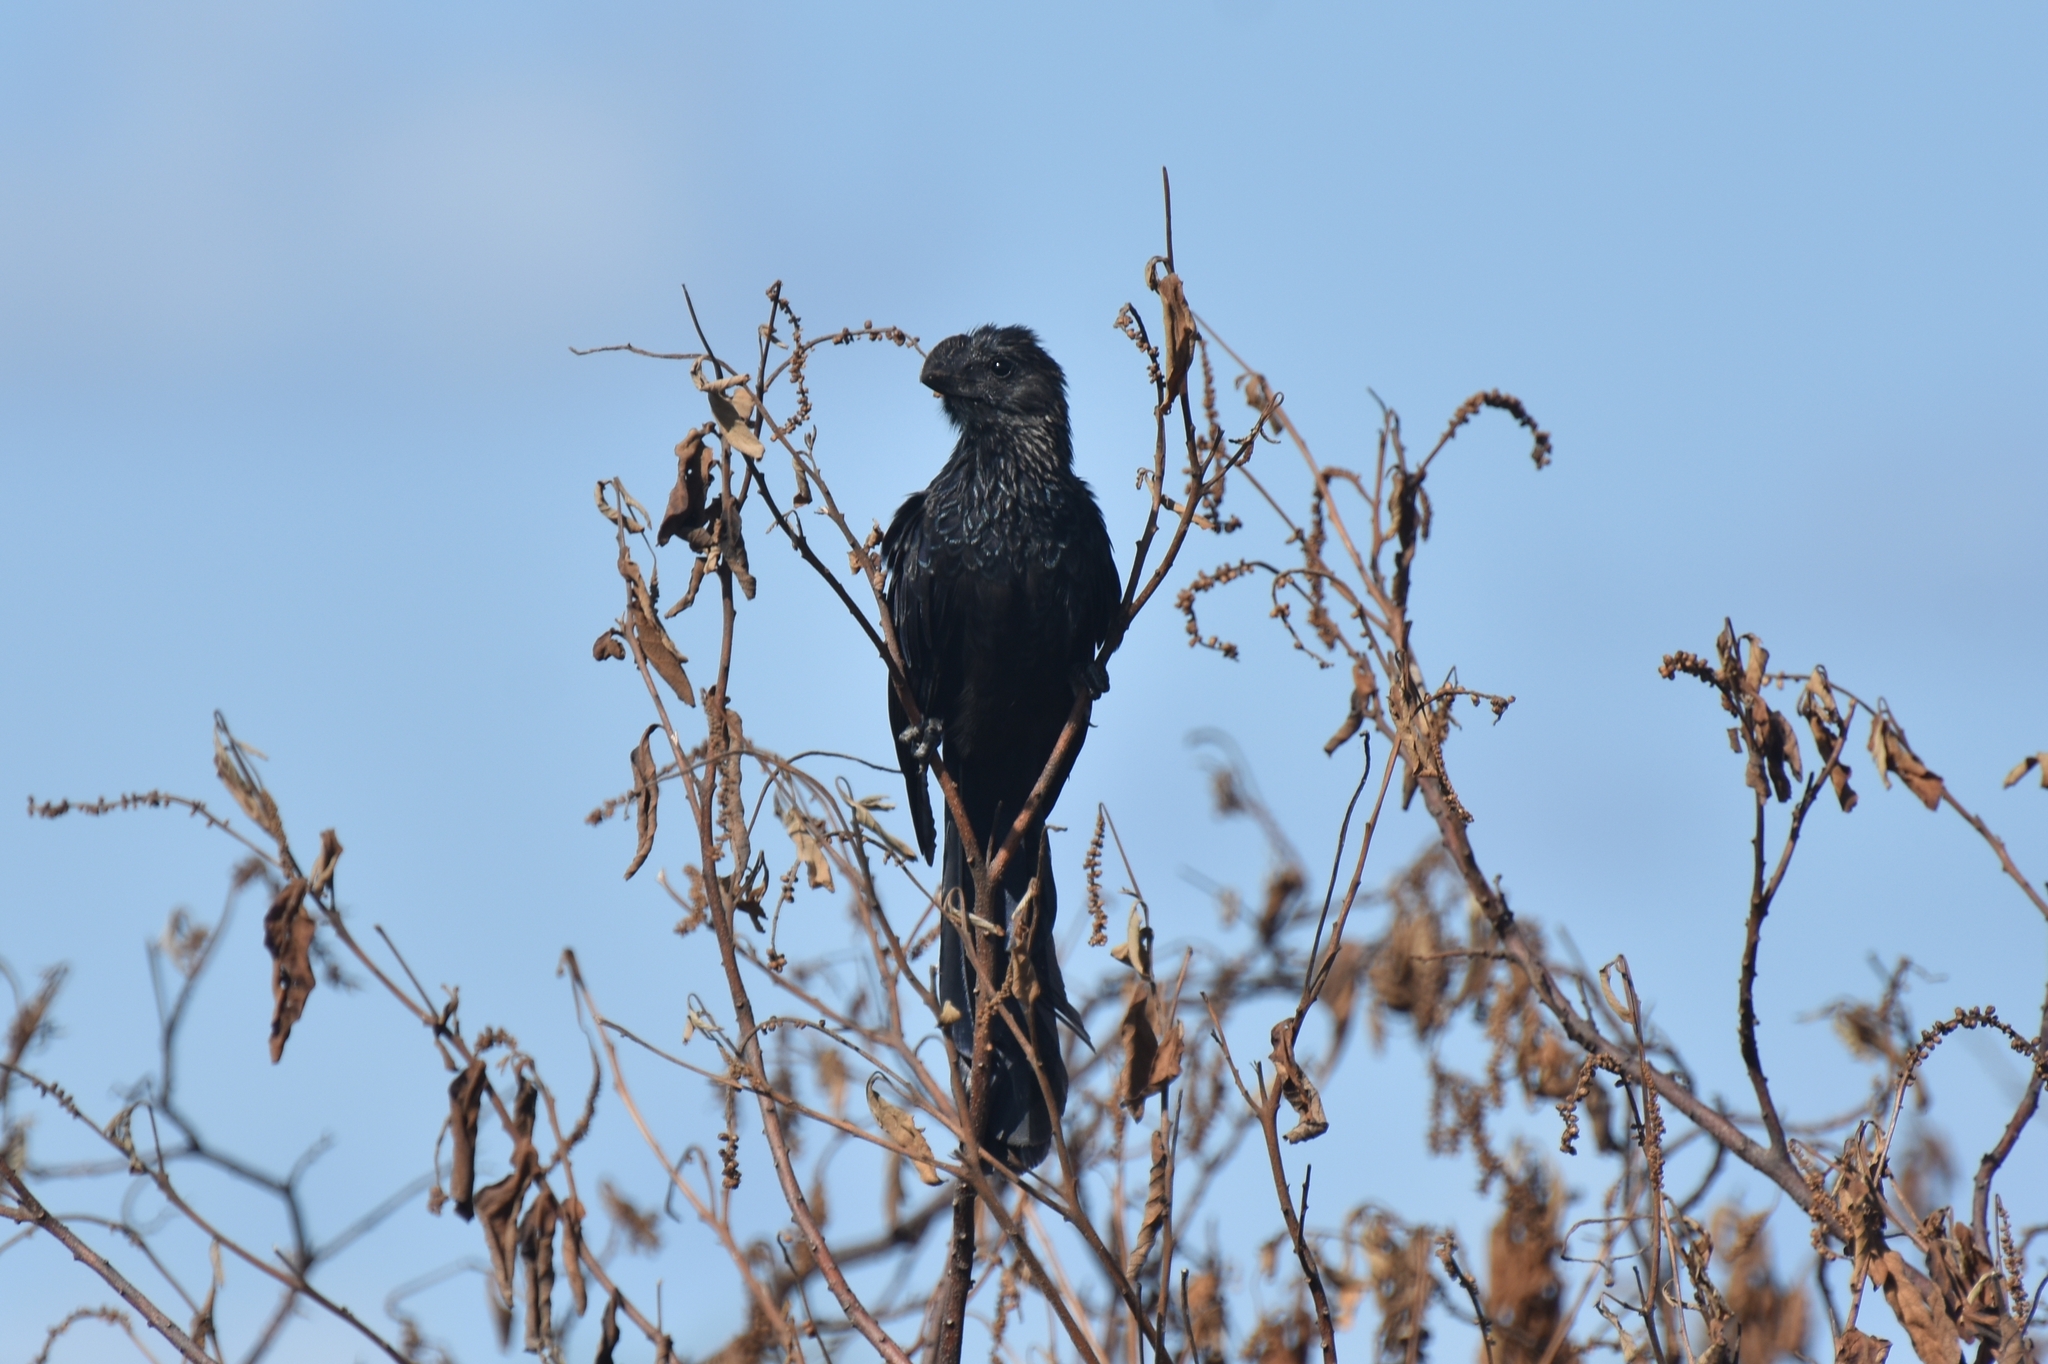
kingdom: Animalia
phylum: Chordata
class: Aves
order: Cuculiformes
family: Cuculidae
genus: Crotophaga
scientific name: Crotophaga ani
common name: Smooth-billed ani
